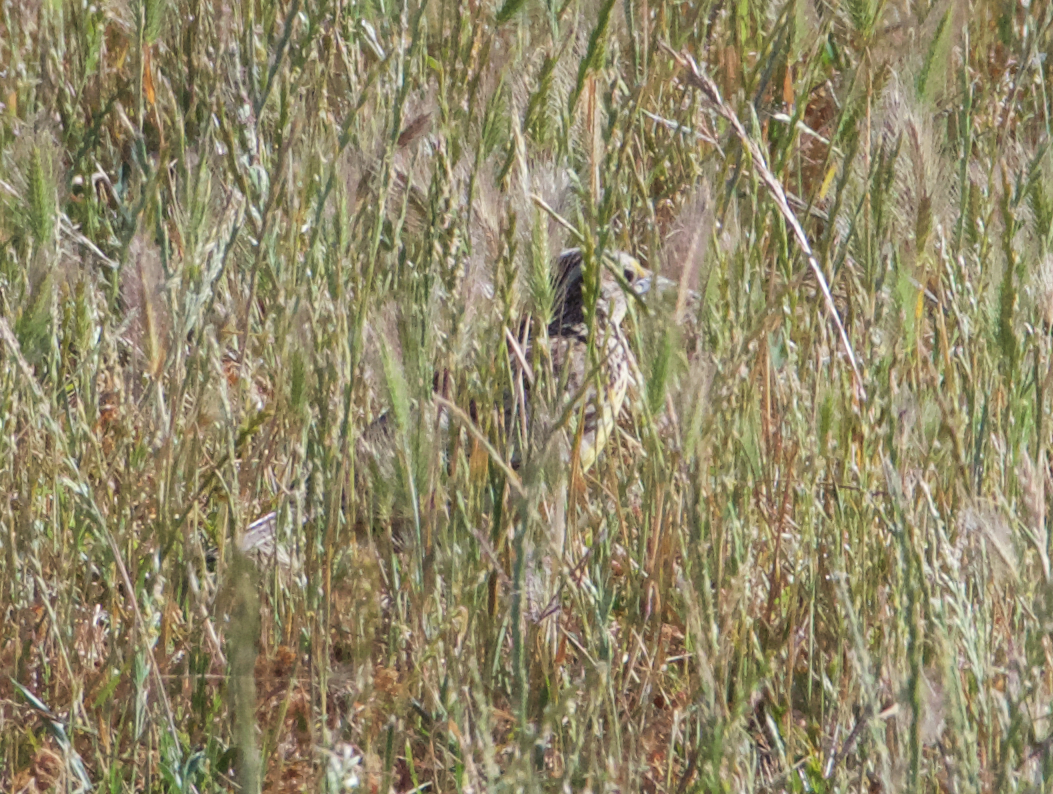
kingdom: Animalia
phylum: Chordata
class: Aves
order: Passeriformes
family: Icteridae
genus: Sturnella
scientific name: Sturnella neglecta
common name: Western meadowlark
